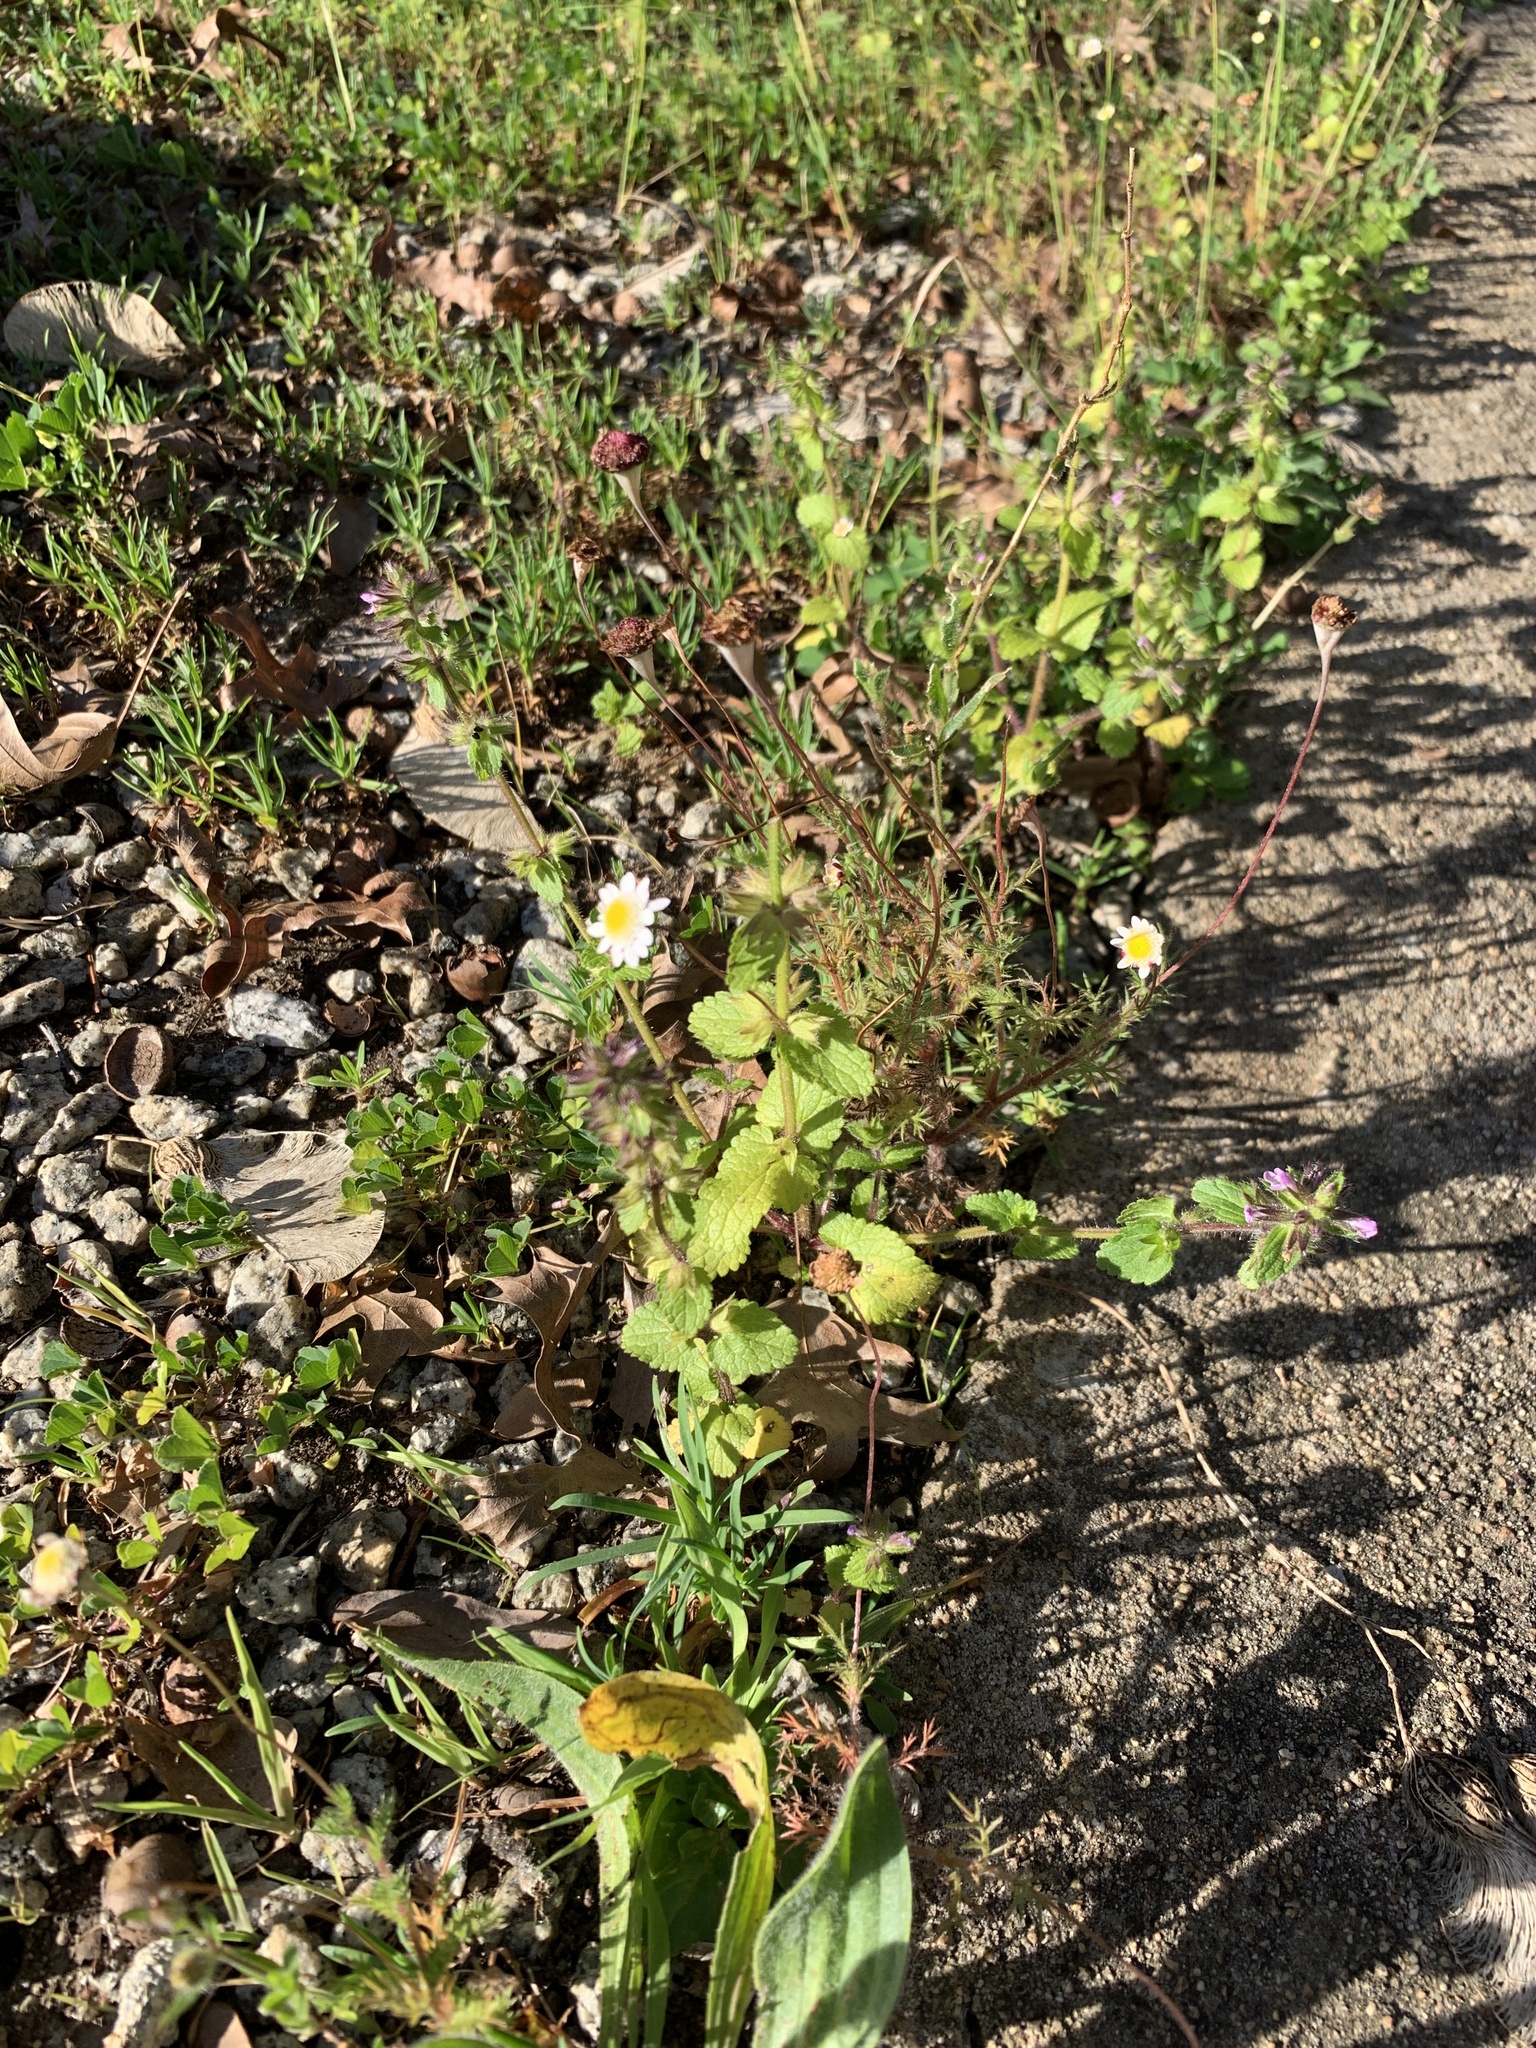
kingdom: Plantae
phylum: Tracheophyta
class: Magnoliopsida
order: Asterales
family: Asteraceae
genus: Cotula
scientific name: Cotula turbinata
